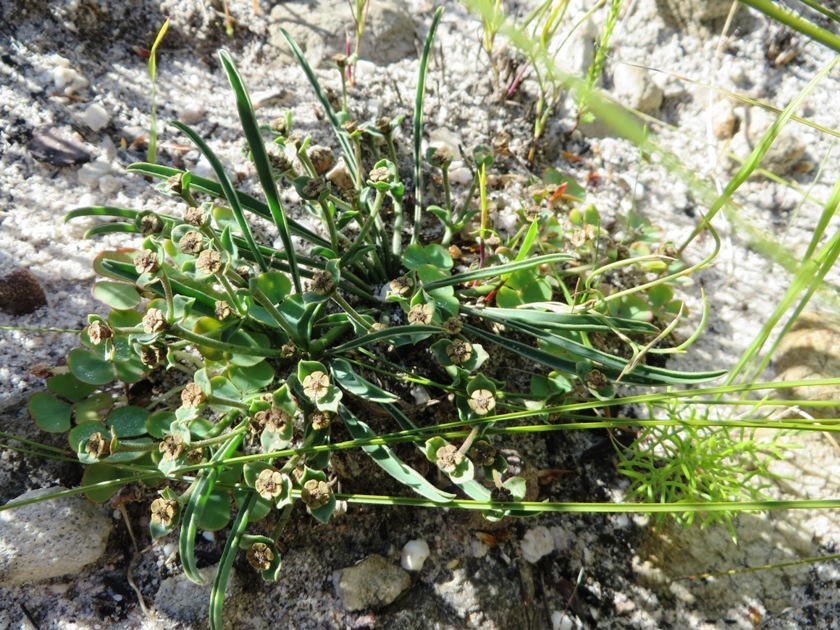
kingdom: Plantae
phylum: Tracheophyta
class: Magnoliopsida
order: Malpighiales
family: Euphorbiaceae
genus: Euphorbia
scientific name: Euphorbia silenifolia
